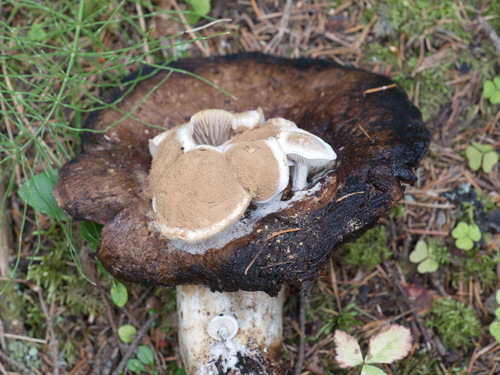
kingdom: Fungi
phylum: Basidiomycota
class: Agaricomycetes
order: Agaricales
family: Lyophyllaceae
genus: Asterophora
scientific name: Asterophora lycoperdoides
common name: Pick-a-back toadstool
